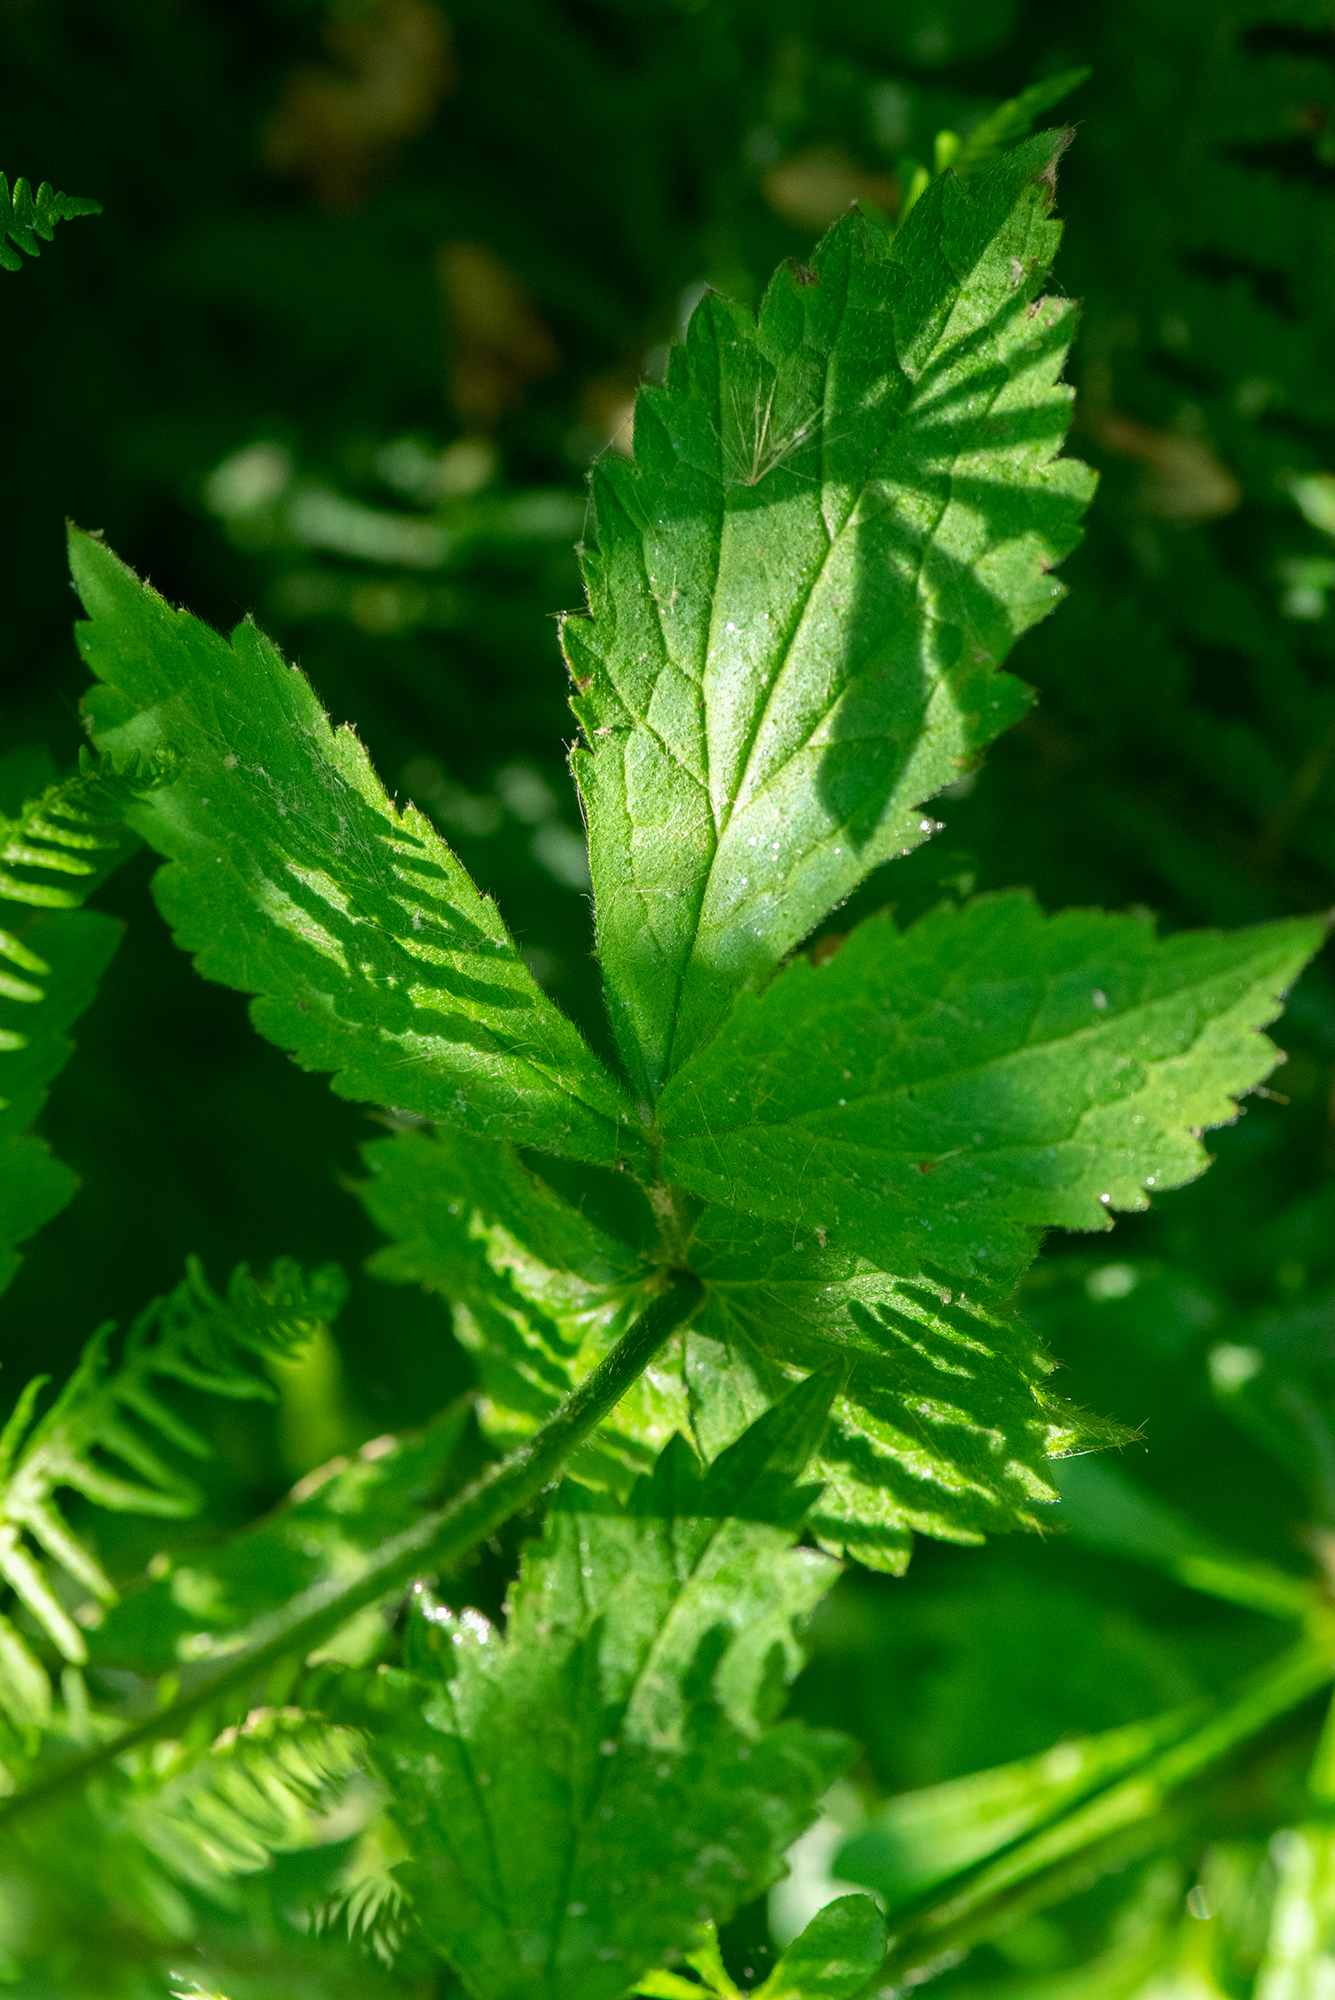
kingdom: Plantae
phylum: Tracheophyta
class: Magnoliopsida
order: Rosales
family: Rosaceae
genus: Geum
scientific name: Geum urbanum
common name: Wood avens
